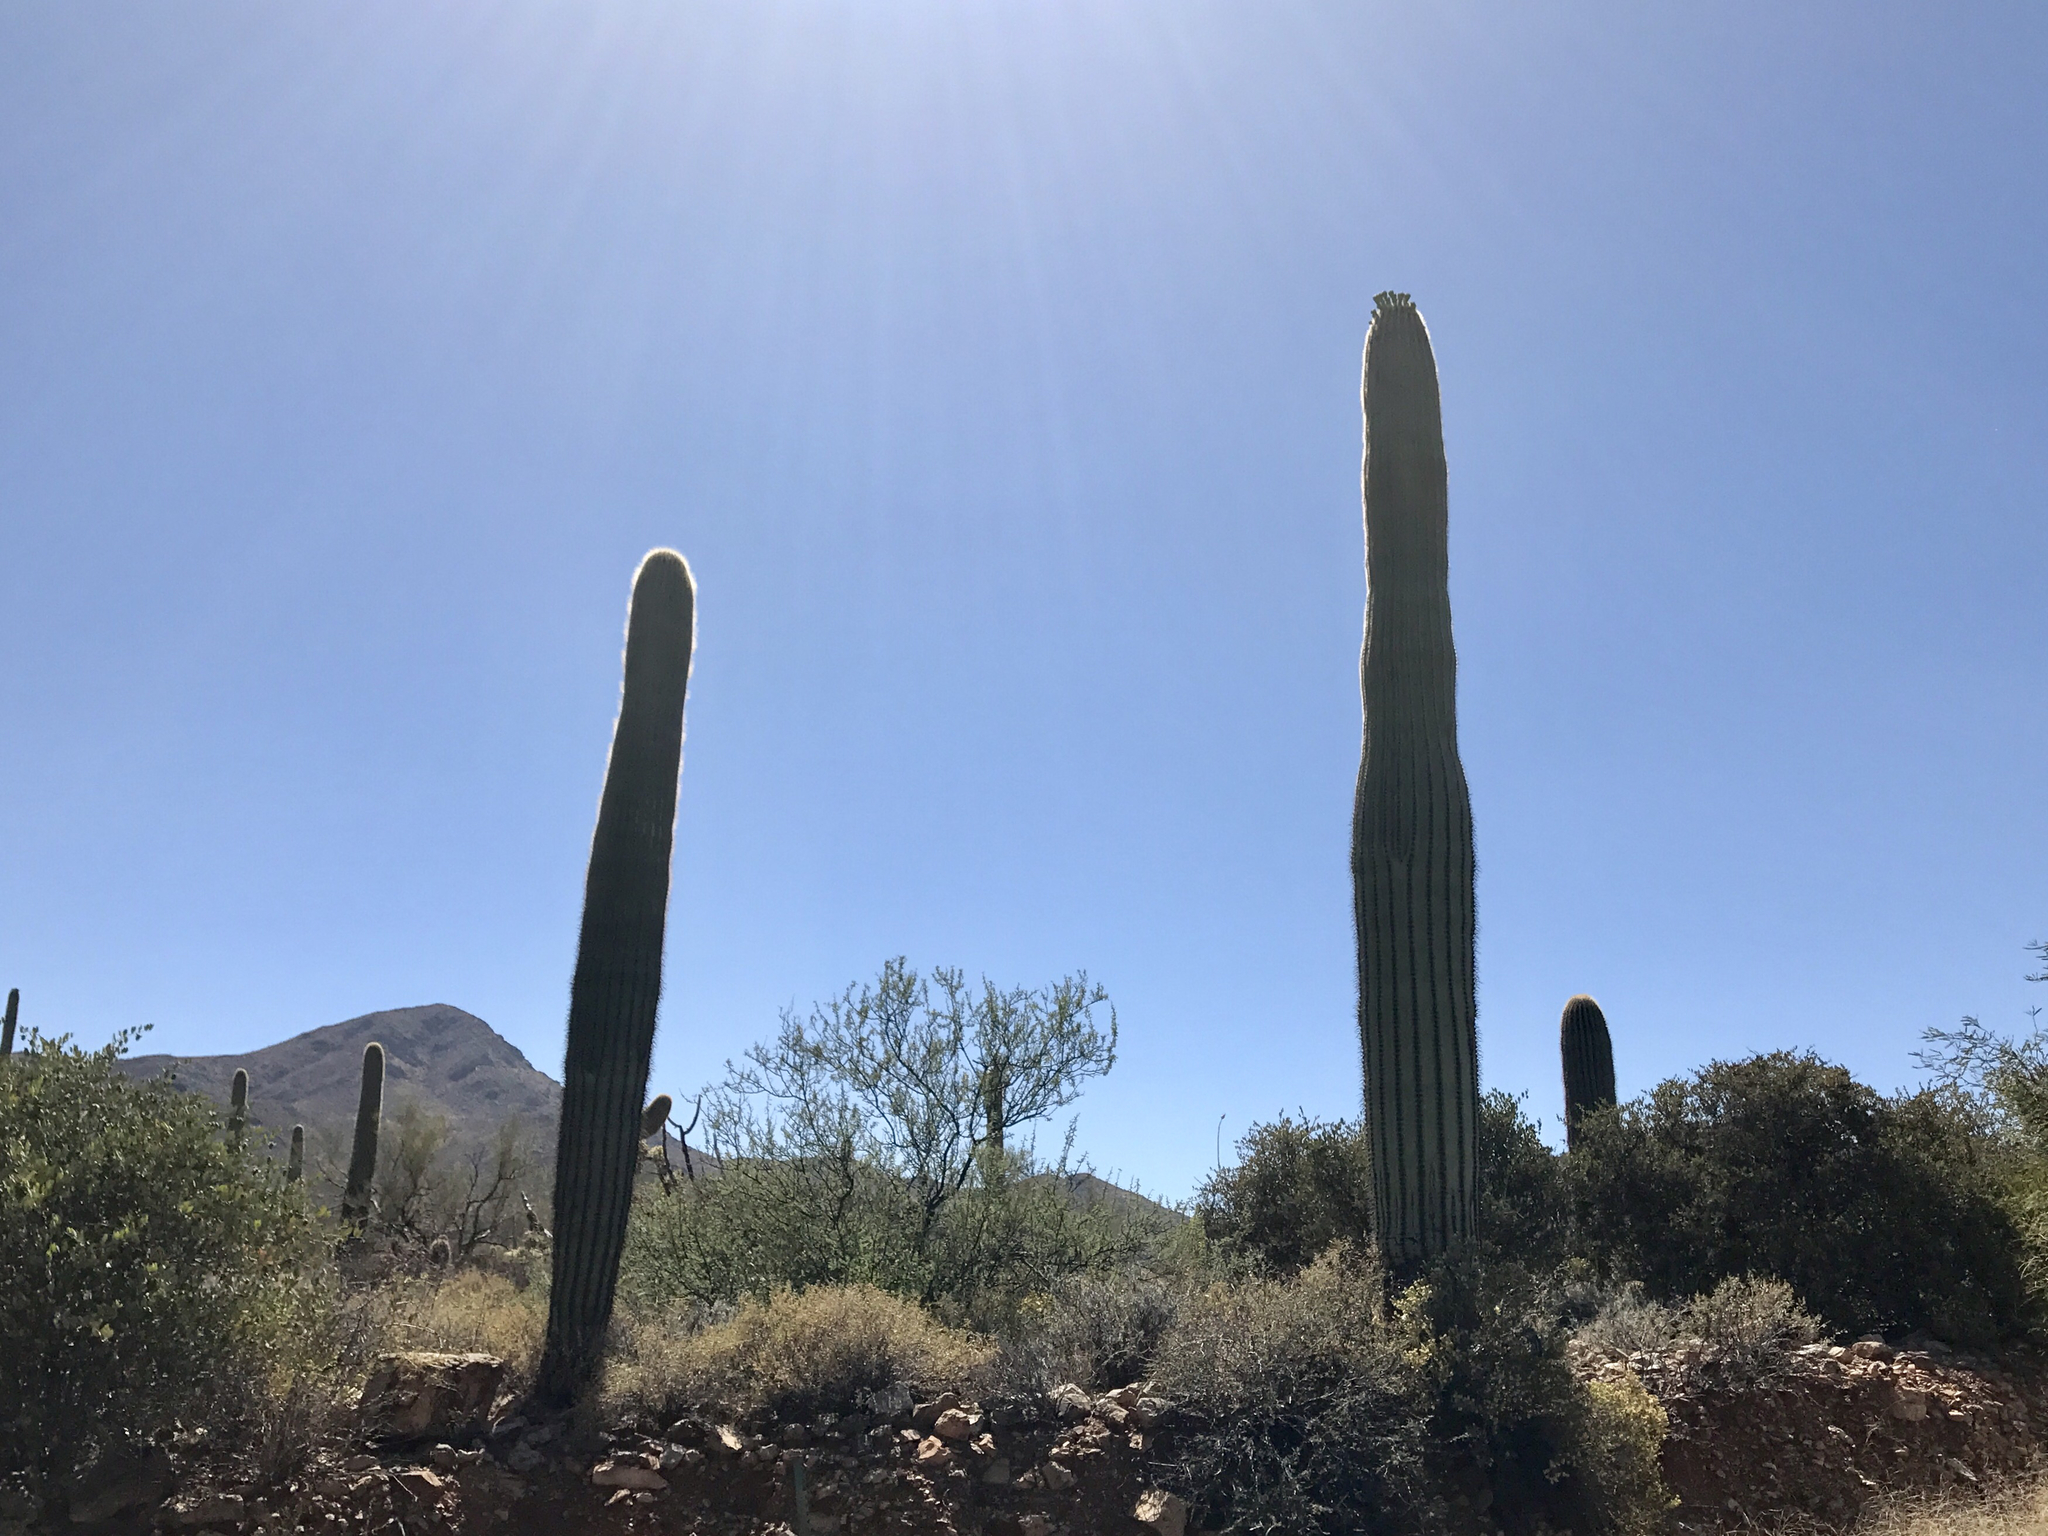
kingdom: Plantae
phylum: Tracheophyta
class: Magnoliopsida
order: Caryophyllales
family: Cactaceae
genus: Carnegiea
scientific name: Carnegiea gigantea
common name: Saguaro
